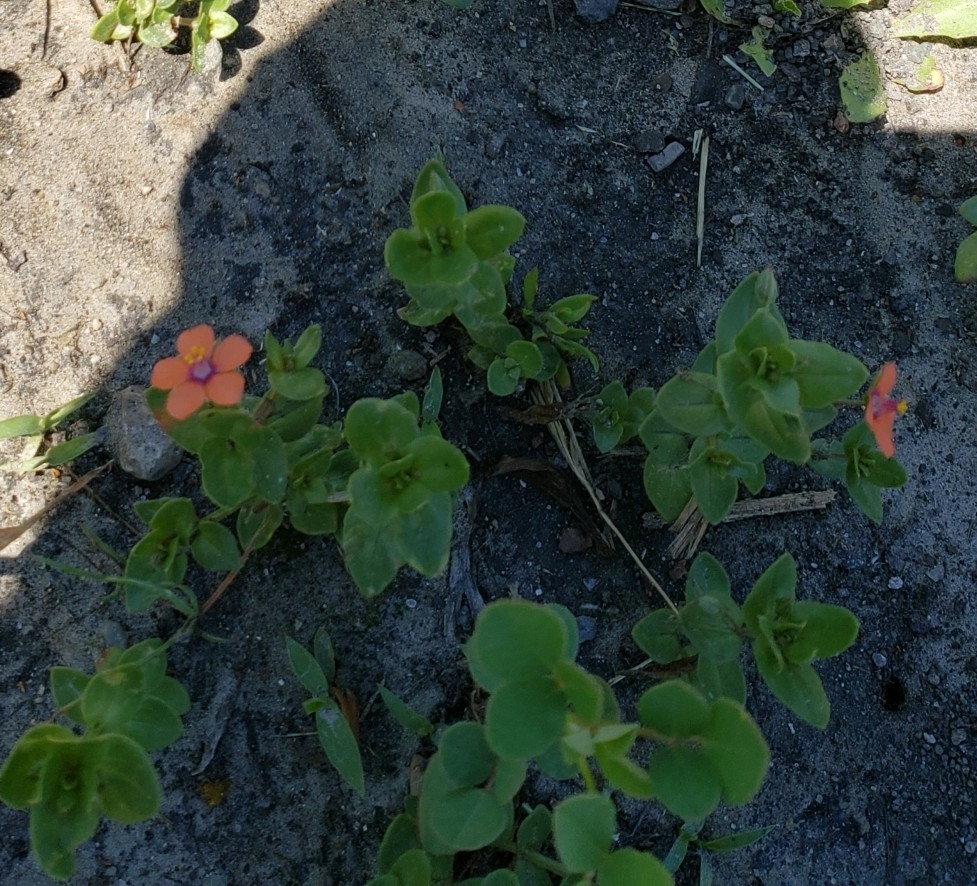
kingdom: Plantae
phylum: Tracheophyta
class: Magnoliopsida
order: Ericales
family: Primulaceae
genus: Lysimachia
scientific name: Lysimachia arvensis
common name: Scarlet pimpernel
